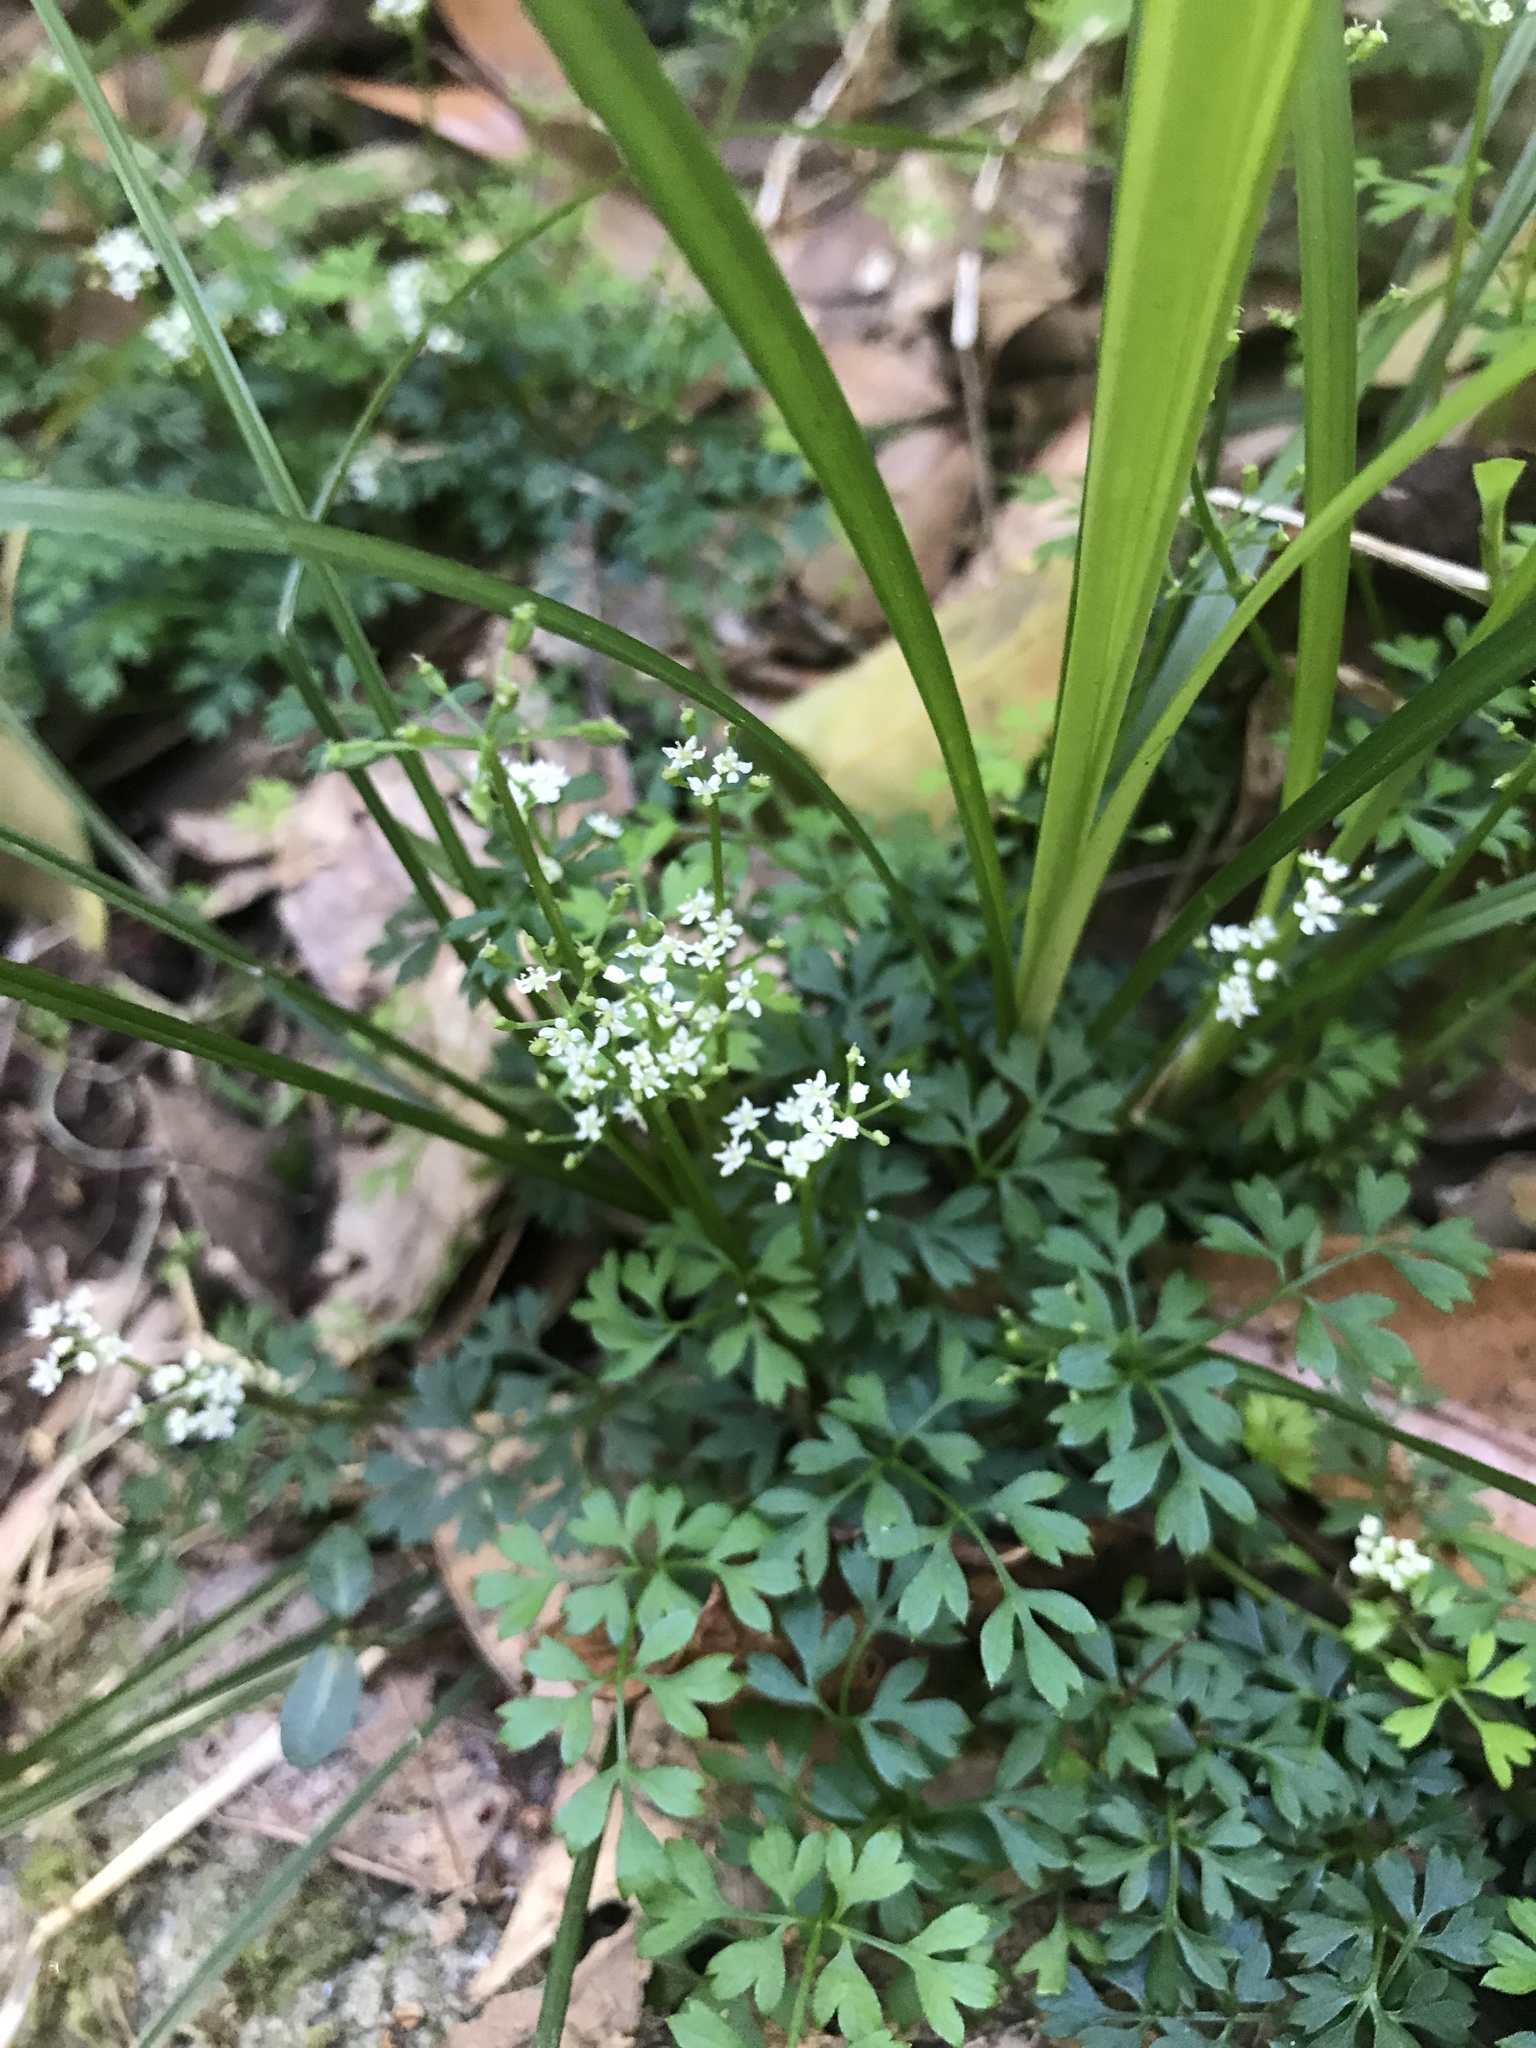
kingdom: Plantae
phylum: Tracheophyta
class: Magnoliopsida
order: Apiales
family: Apiaceae
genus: Aegopodium
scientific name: Aegopodium decumbens
